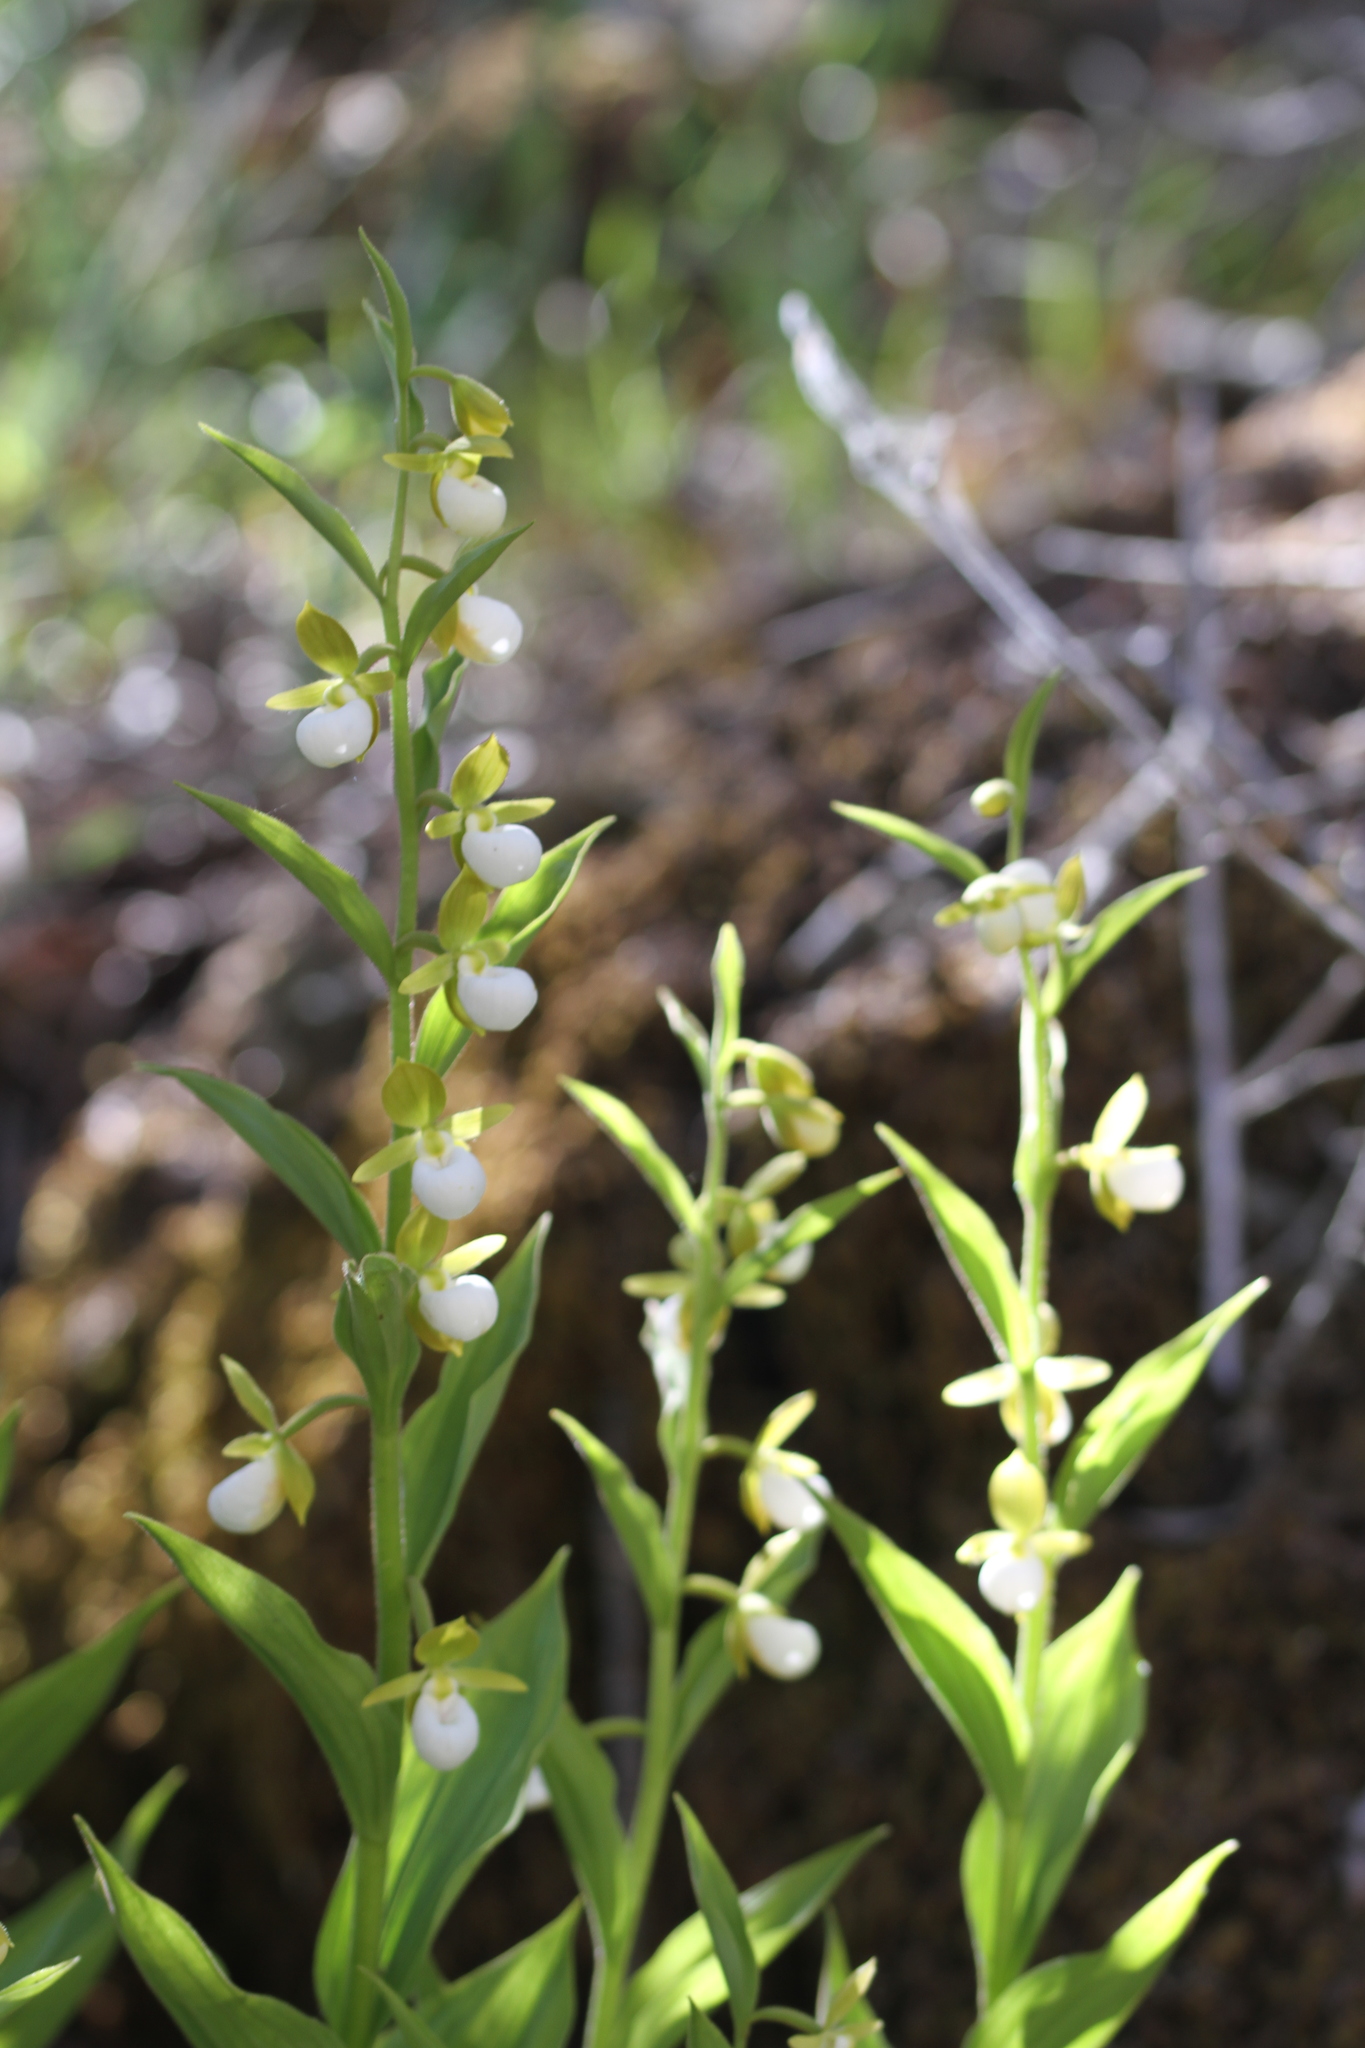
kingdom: Plantae
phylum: Tracheophyta
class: Liliopsida
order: Asparagales
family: Orchidaceae
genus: Cypripedium
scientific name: Cypripedium californicum
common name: California lady's slipper
